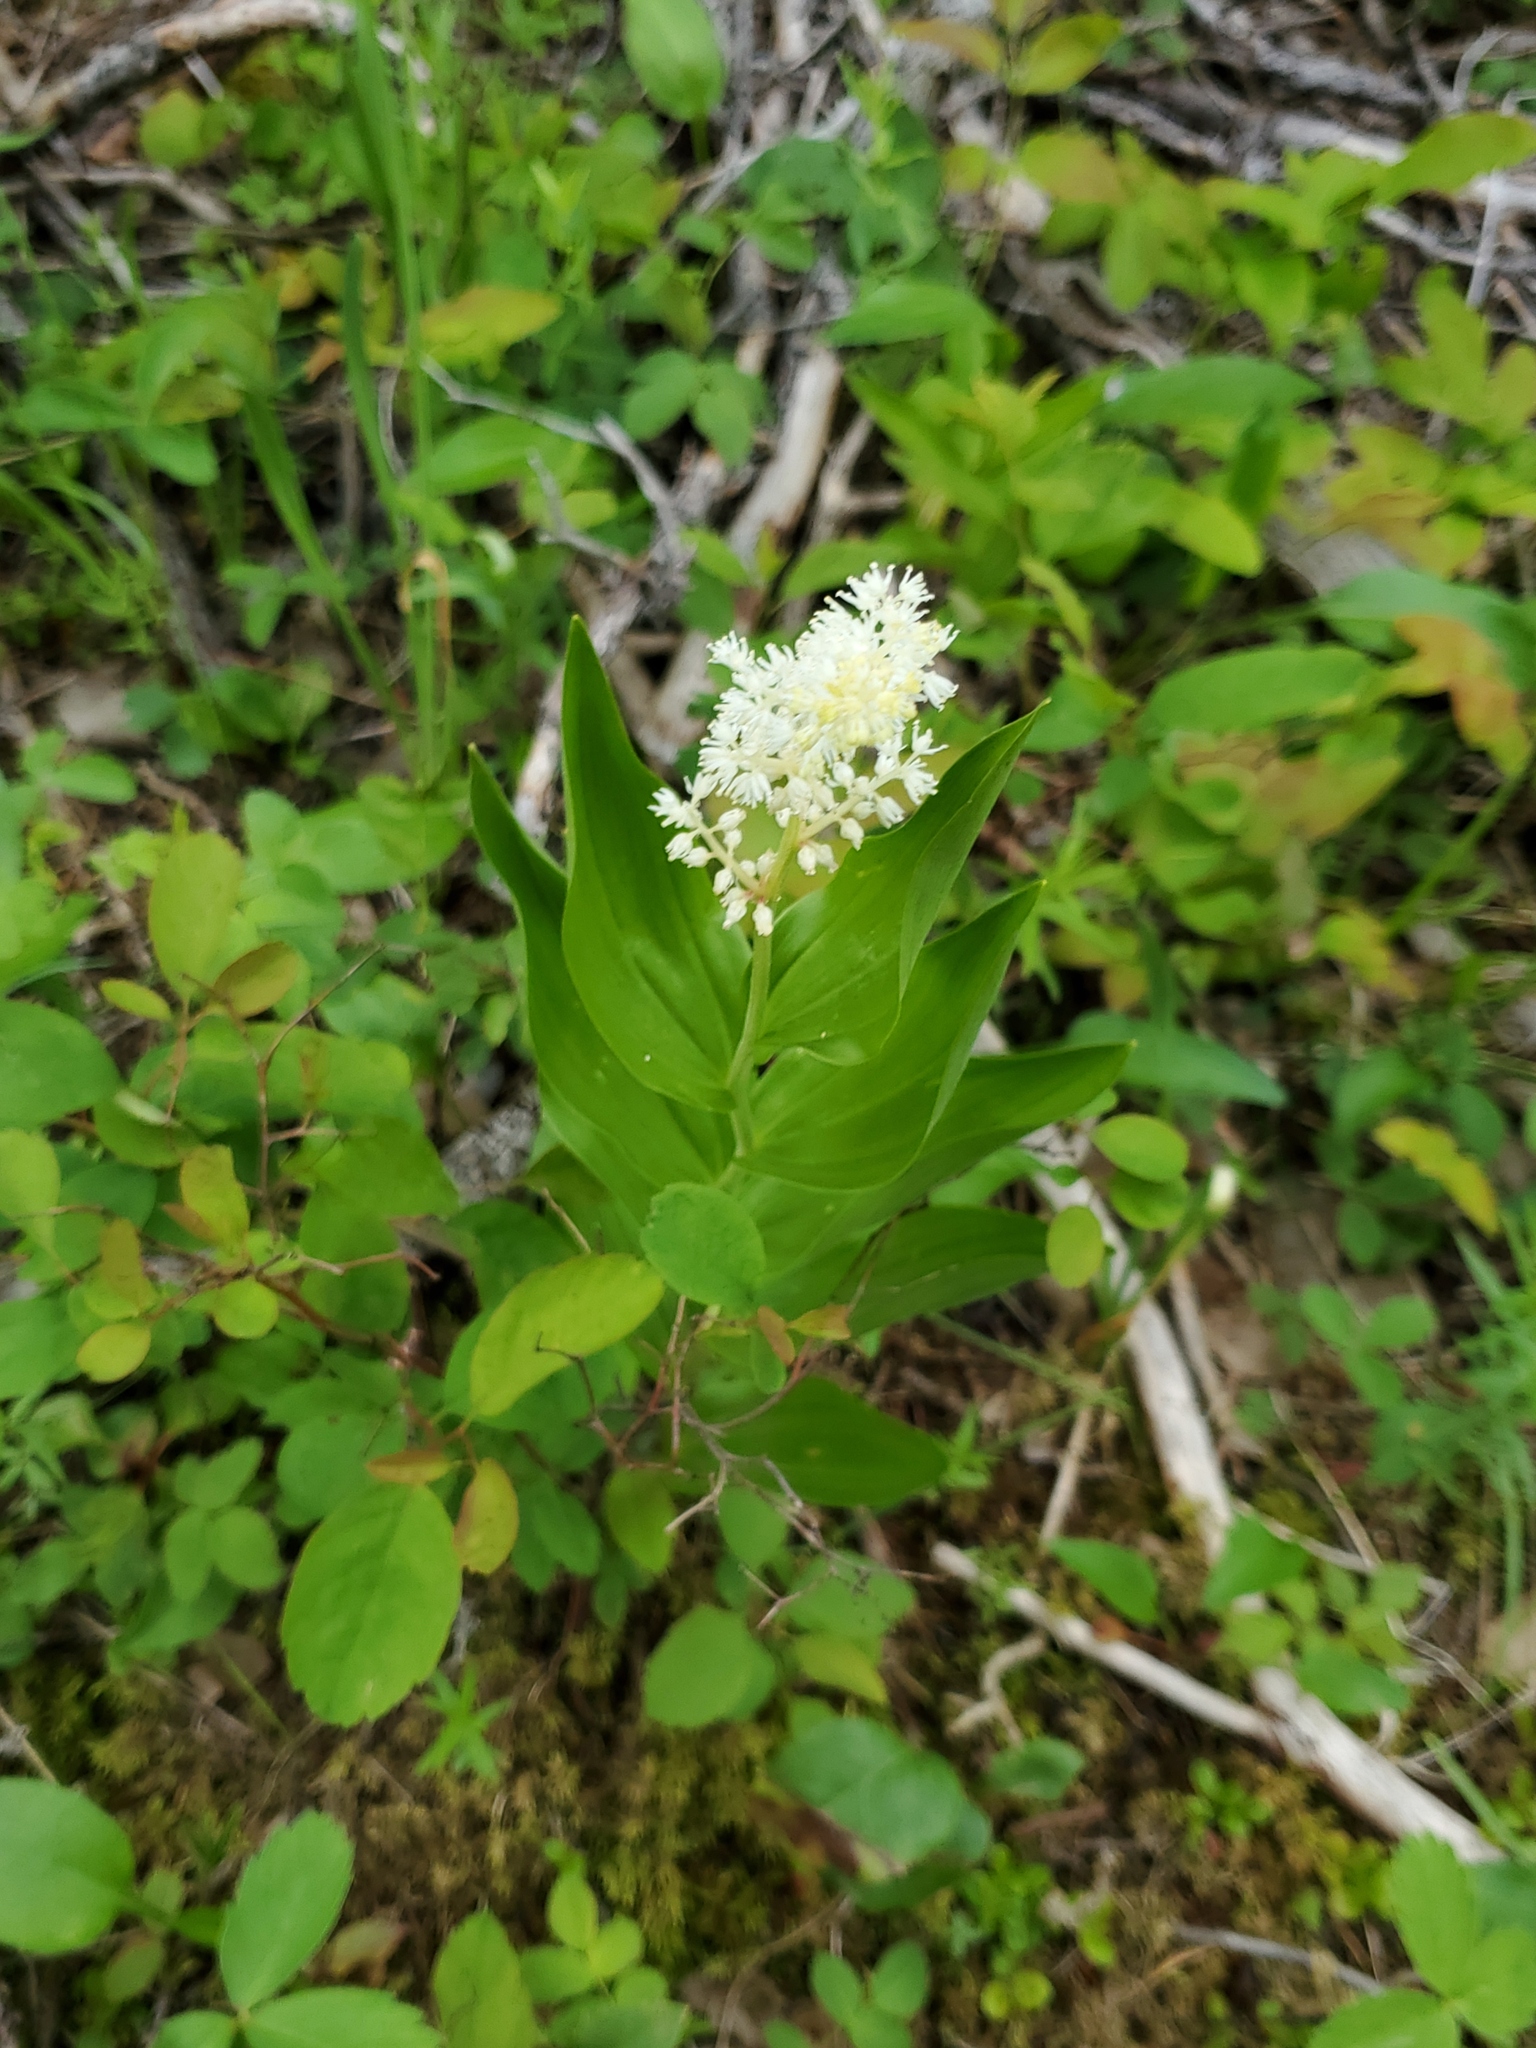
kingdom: Plantae
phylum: Tracheophyta
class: Liliopsida
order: Asparagales
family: Asparagaceae
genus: Maianthemum
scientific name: Maianthemum racemosum
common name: False spikenard
